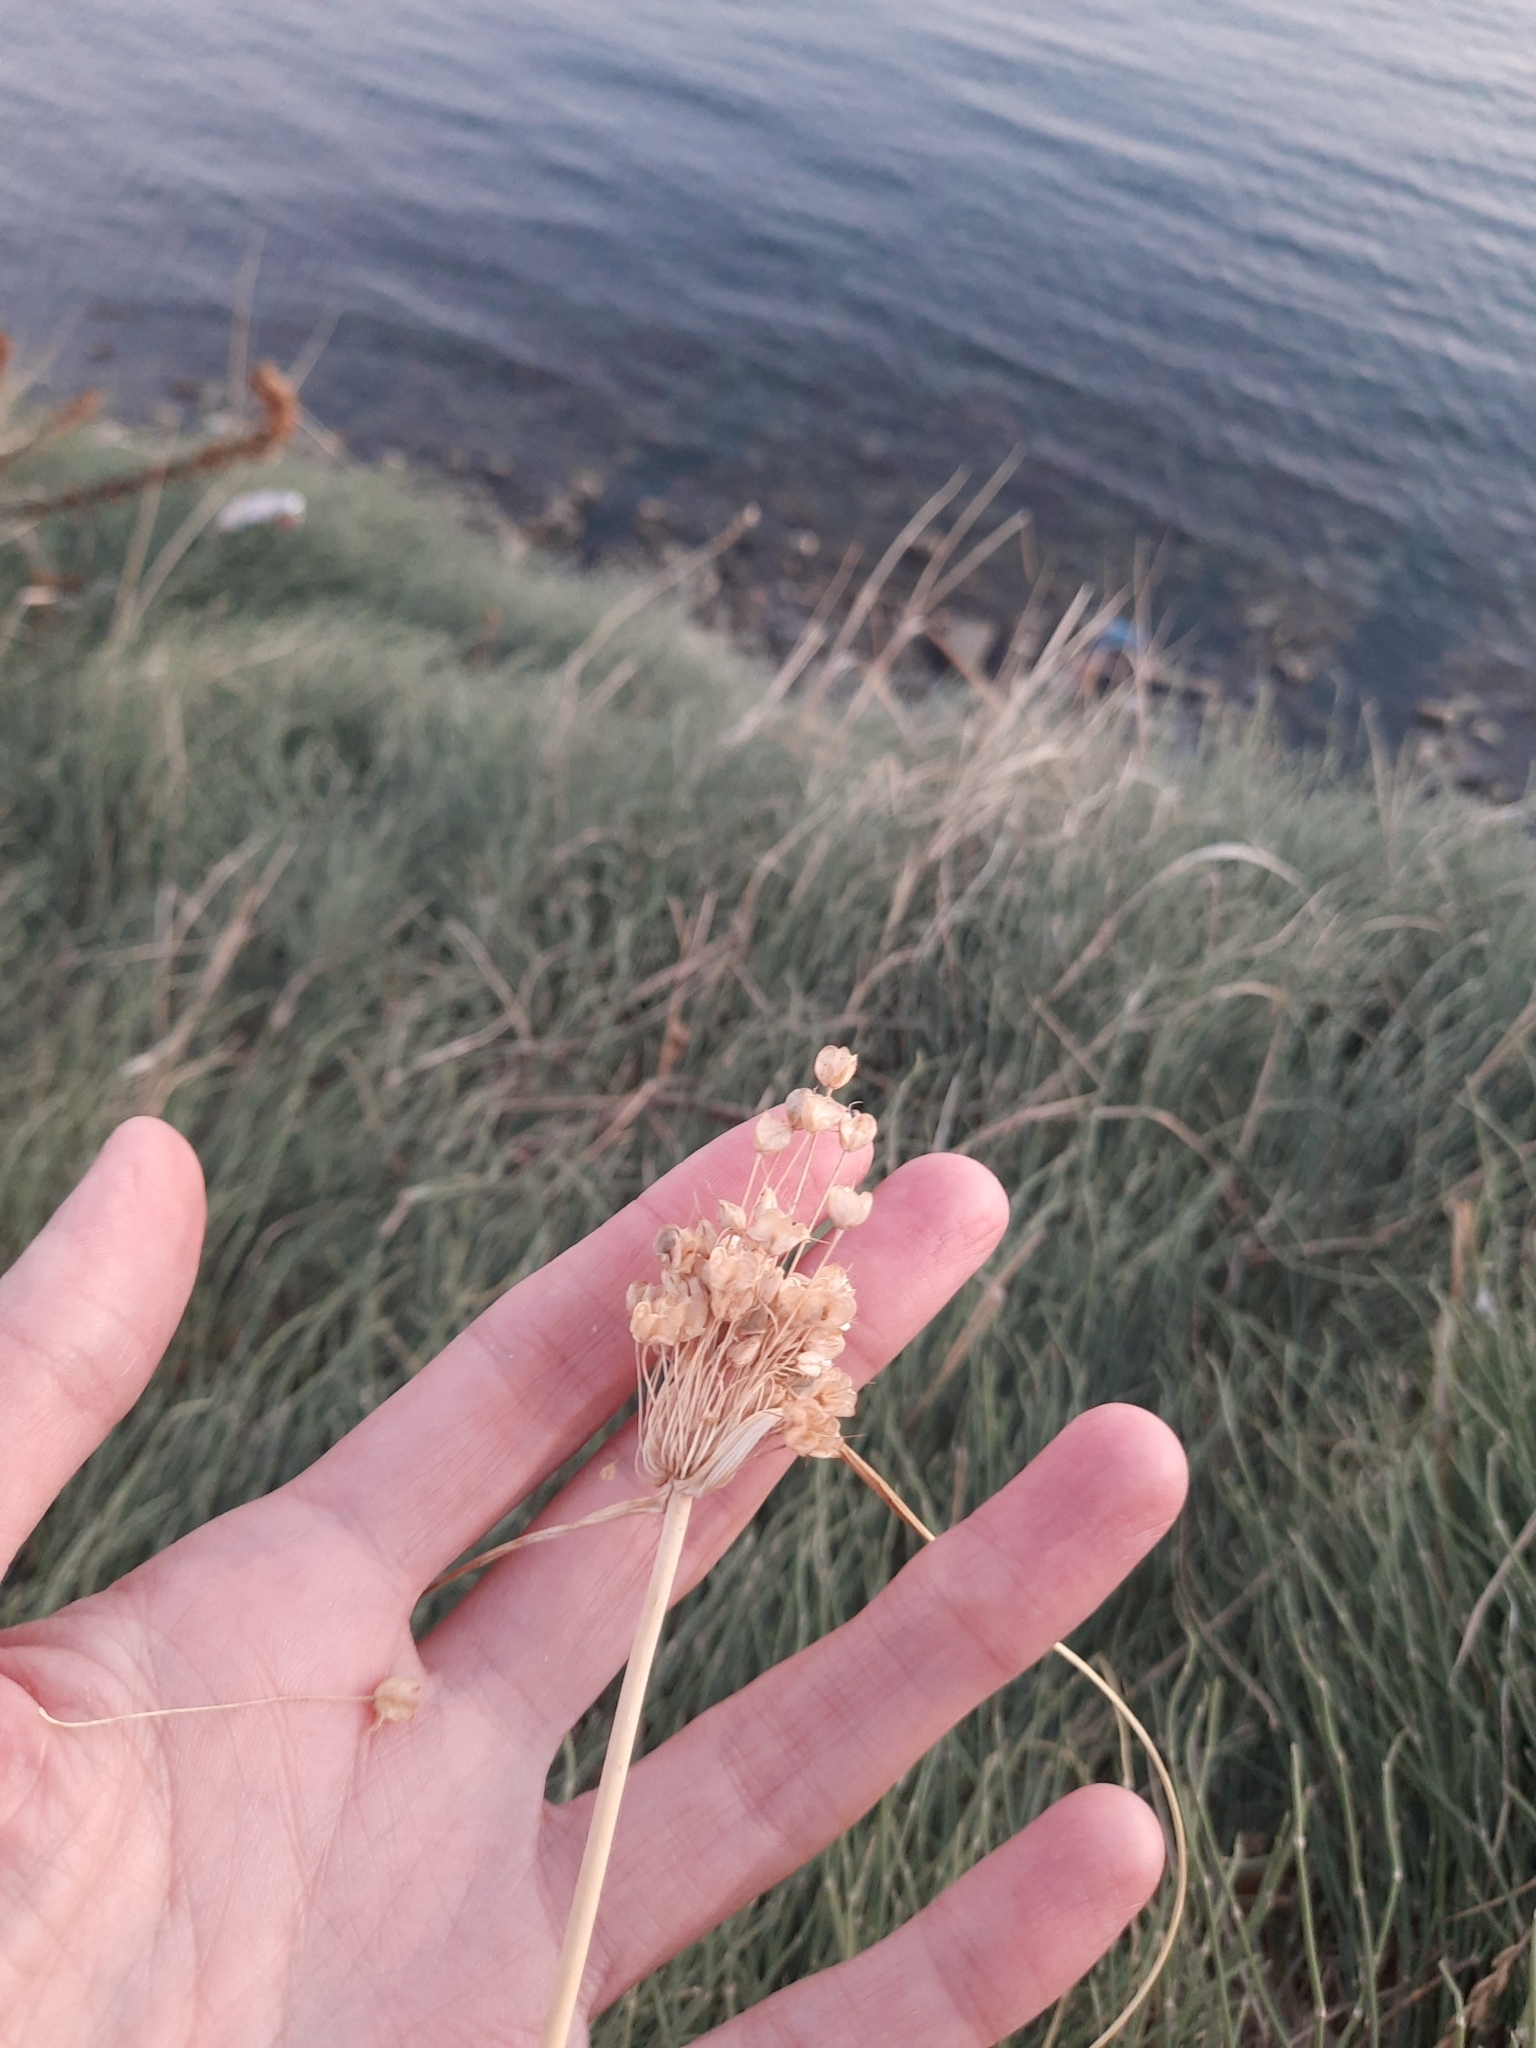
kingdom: Plantae
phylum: Tracheophyta
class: Liliopsida
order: Asparagales
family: Amaryllidaceae
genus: Allium
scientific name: Allium flavum
